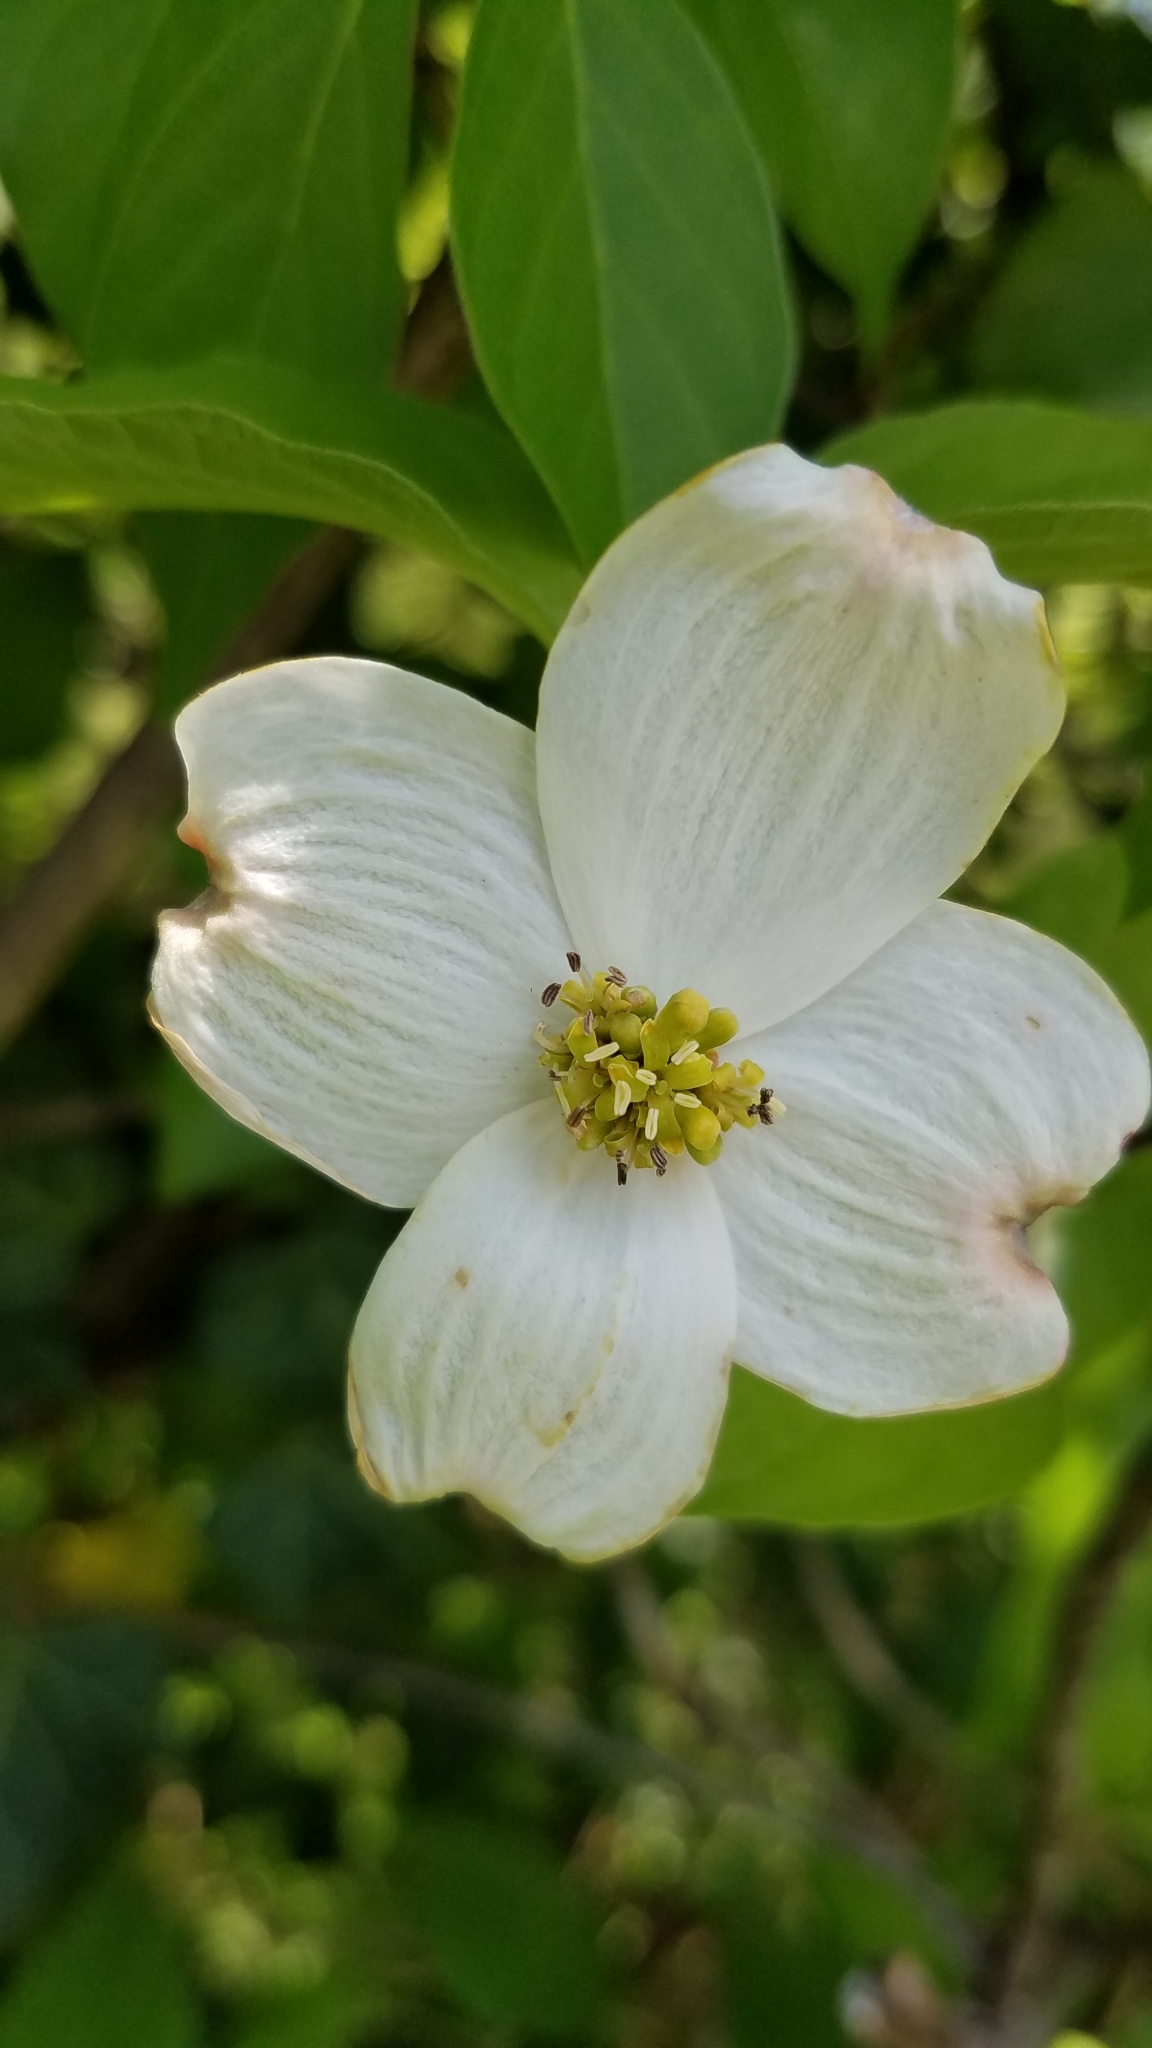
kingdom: Plantae
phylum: Tracheophyta
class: Magnoliopsida
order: Cornales
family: Cornaceae
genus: Cornus
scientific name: Cornus florida
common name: Flowering dogwood
